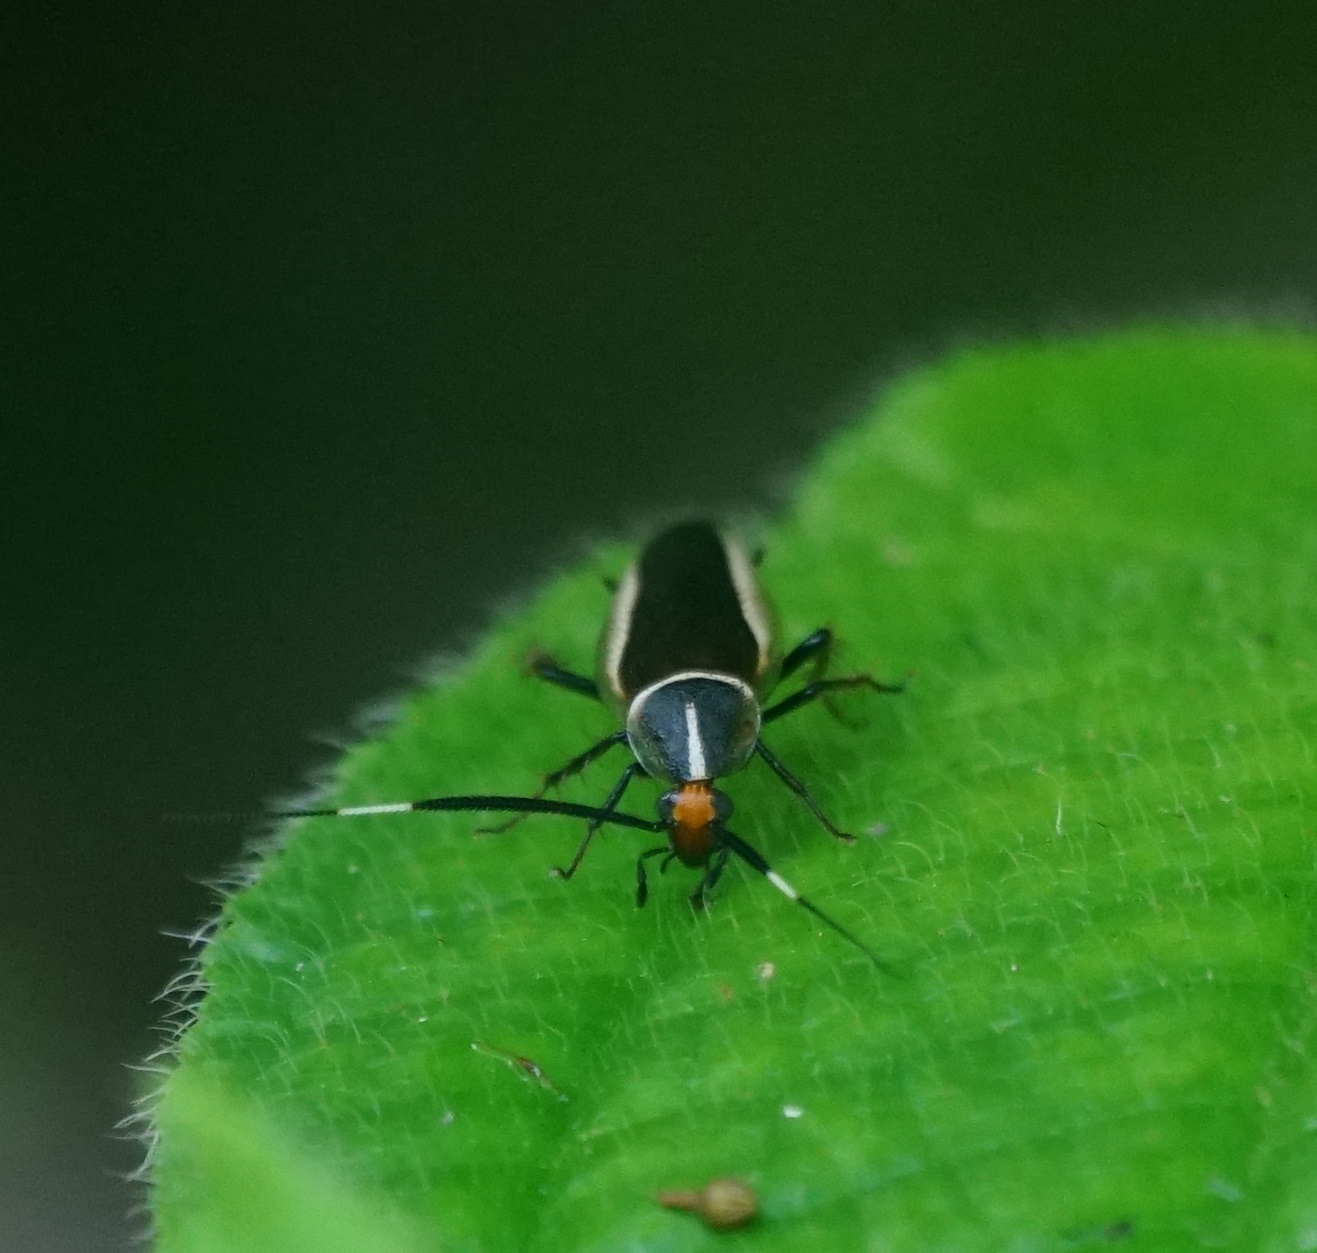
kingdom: Animalia
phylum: Arthropoda
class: Insecta
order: Blattodea
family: Ectobiidae
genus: Hemithyrsocera
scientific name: Hemithyrsocera histrio
